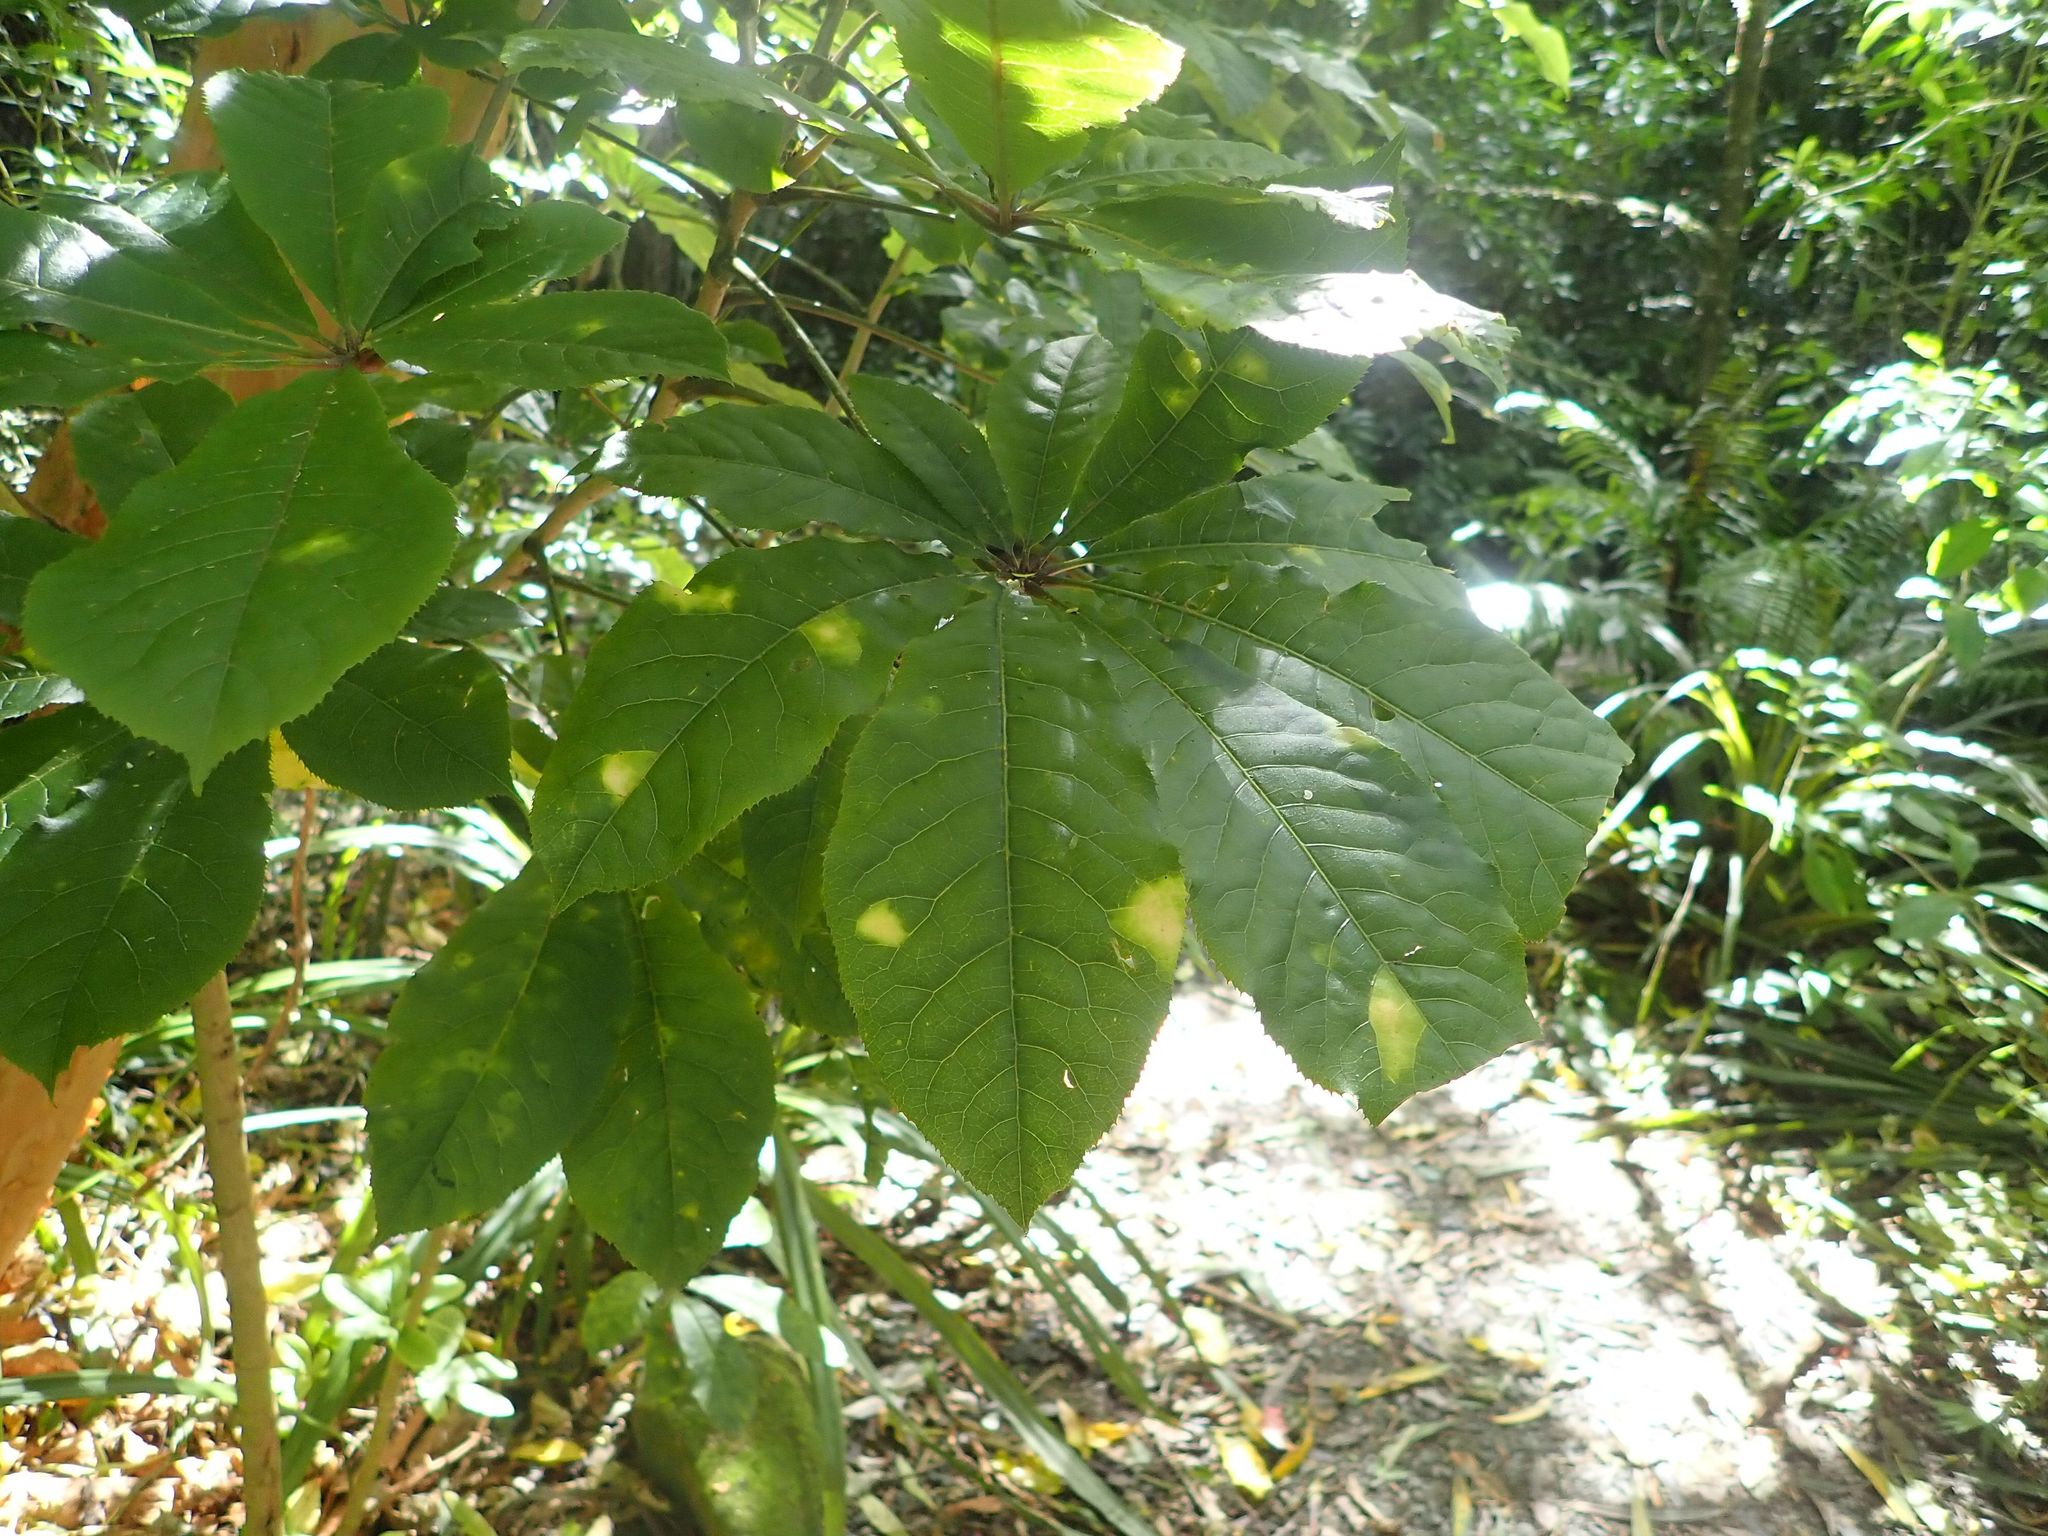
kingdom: Plantae
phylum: Tracheophyta
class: Magnoliopsida
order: Apiales
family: Araliaceae
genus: Schefflera
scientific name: Schefflera digitata
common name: Pate
